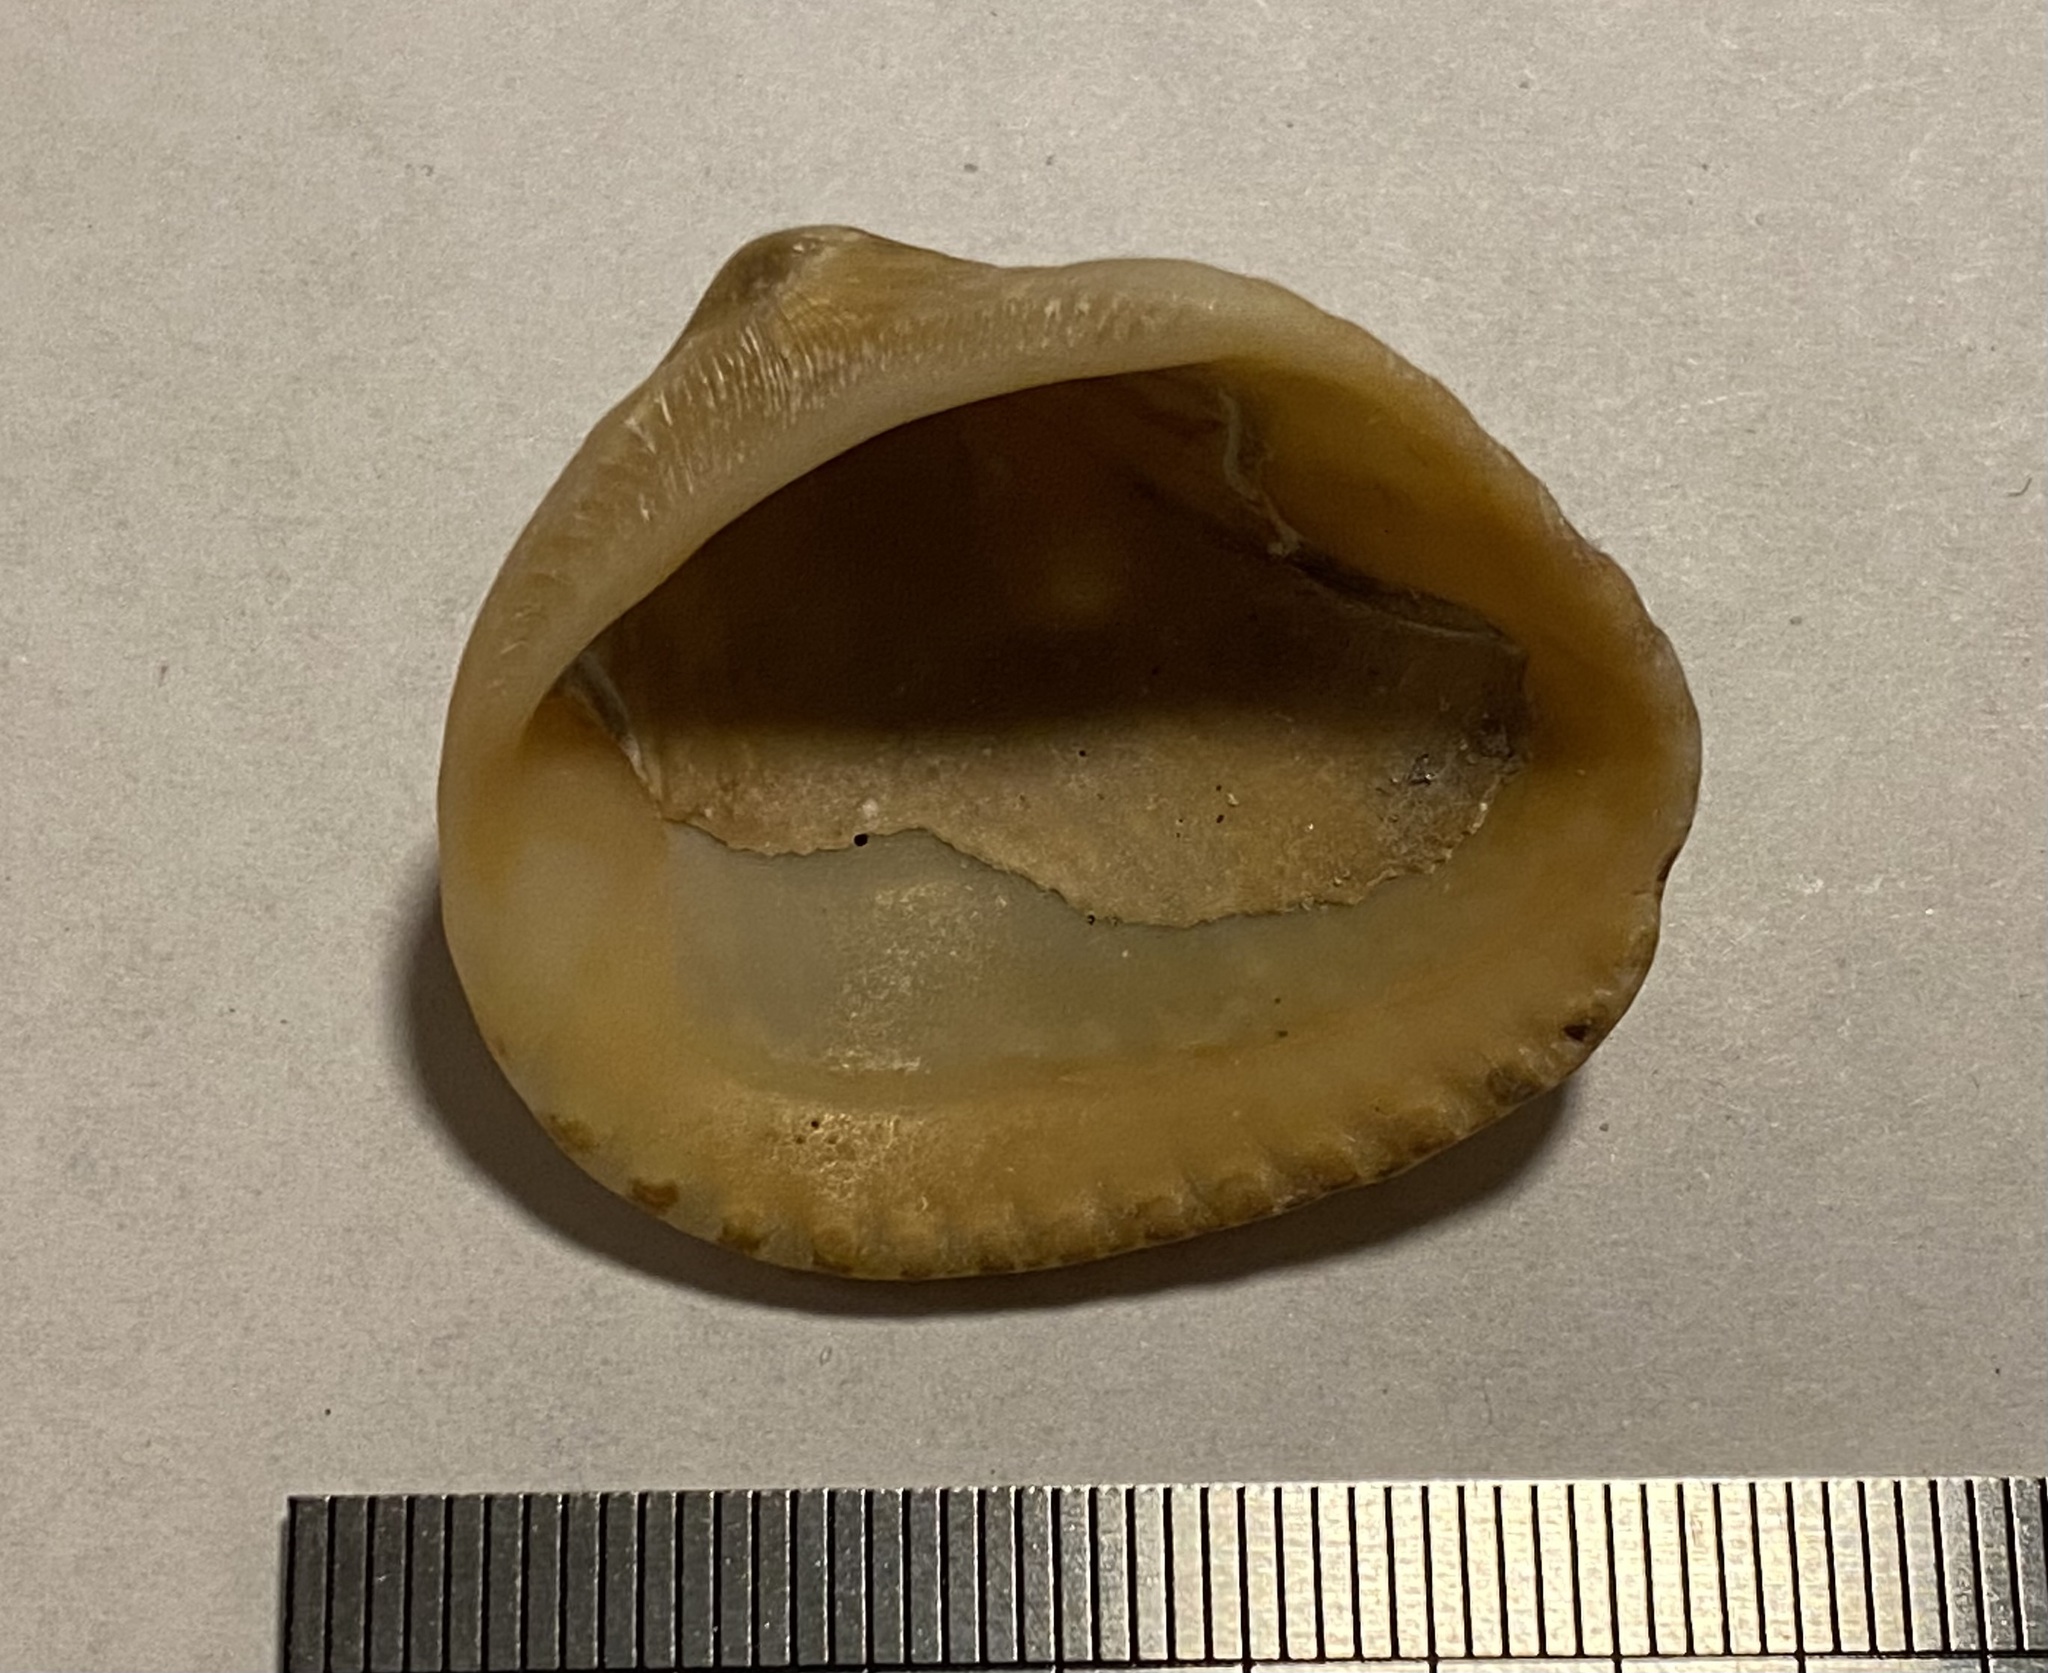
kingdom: Animalia
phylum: Mollusca
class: Bivalvia
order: Arcida
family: Noetiidae
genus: Noetia
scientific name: Noetia ponderosa
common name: Ponderous ark
